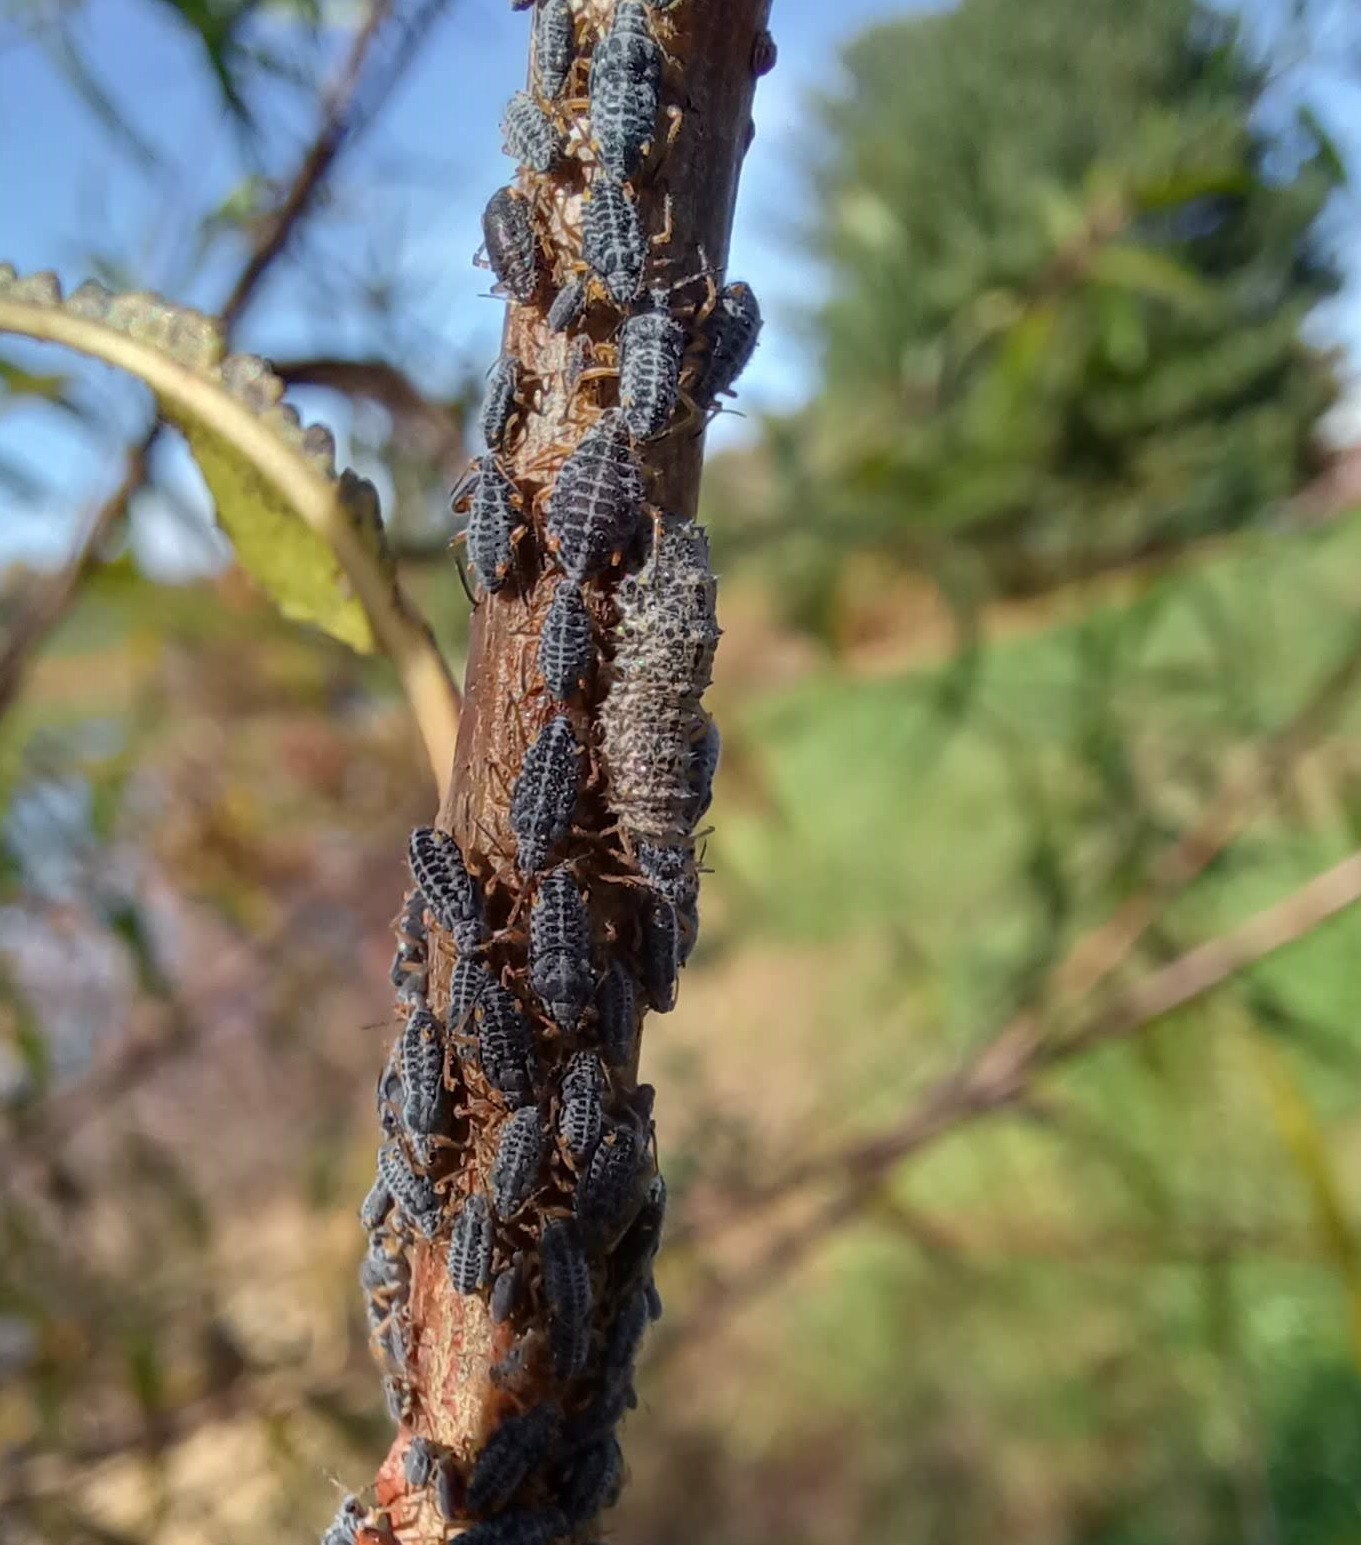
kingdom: Animalia
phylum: Arthropoda
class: Insecta
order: Diptera
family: Syrphidae
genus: Didea
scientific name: Didea fuscipes
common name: Undivided lucent
